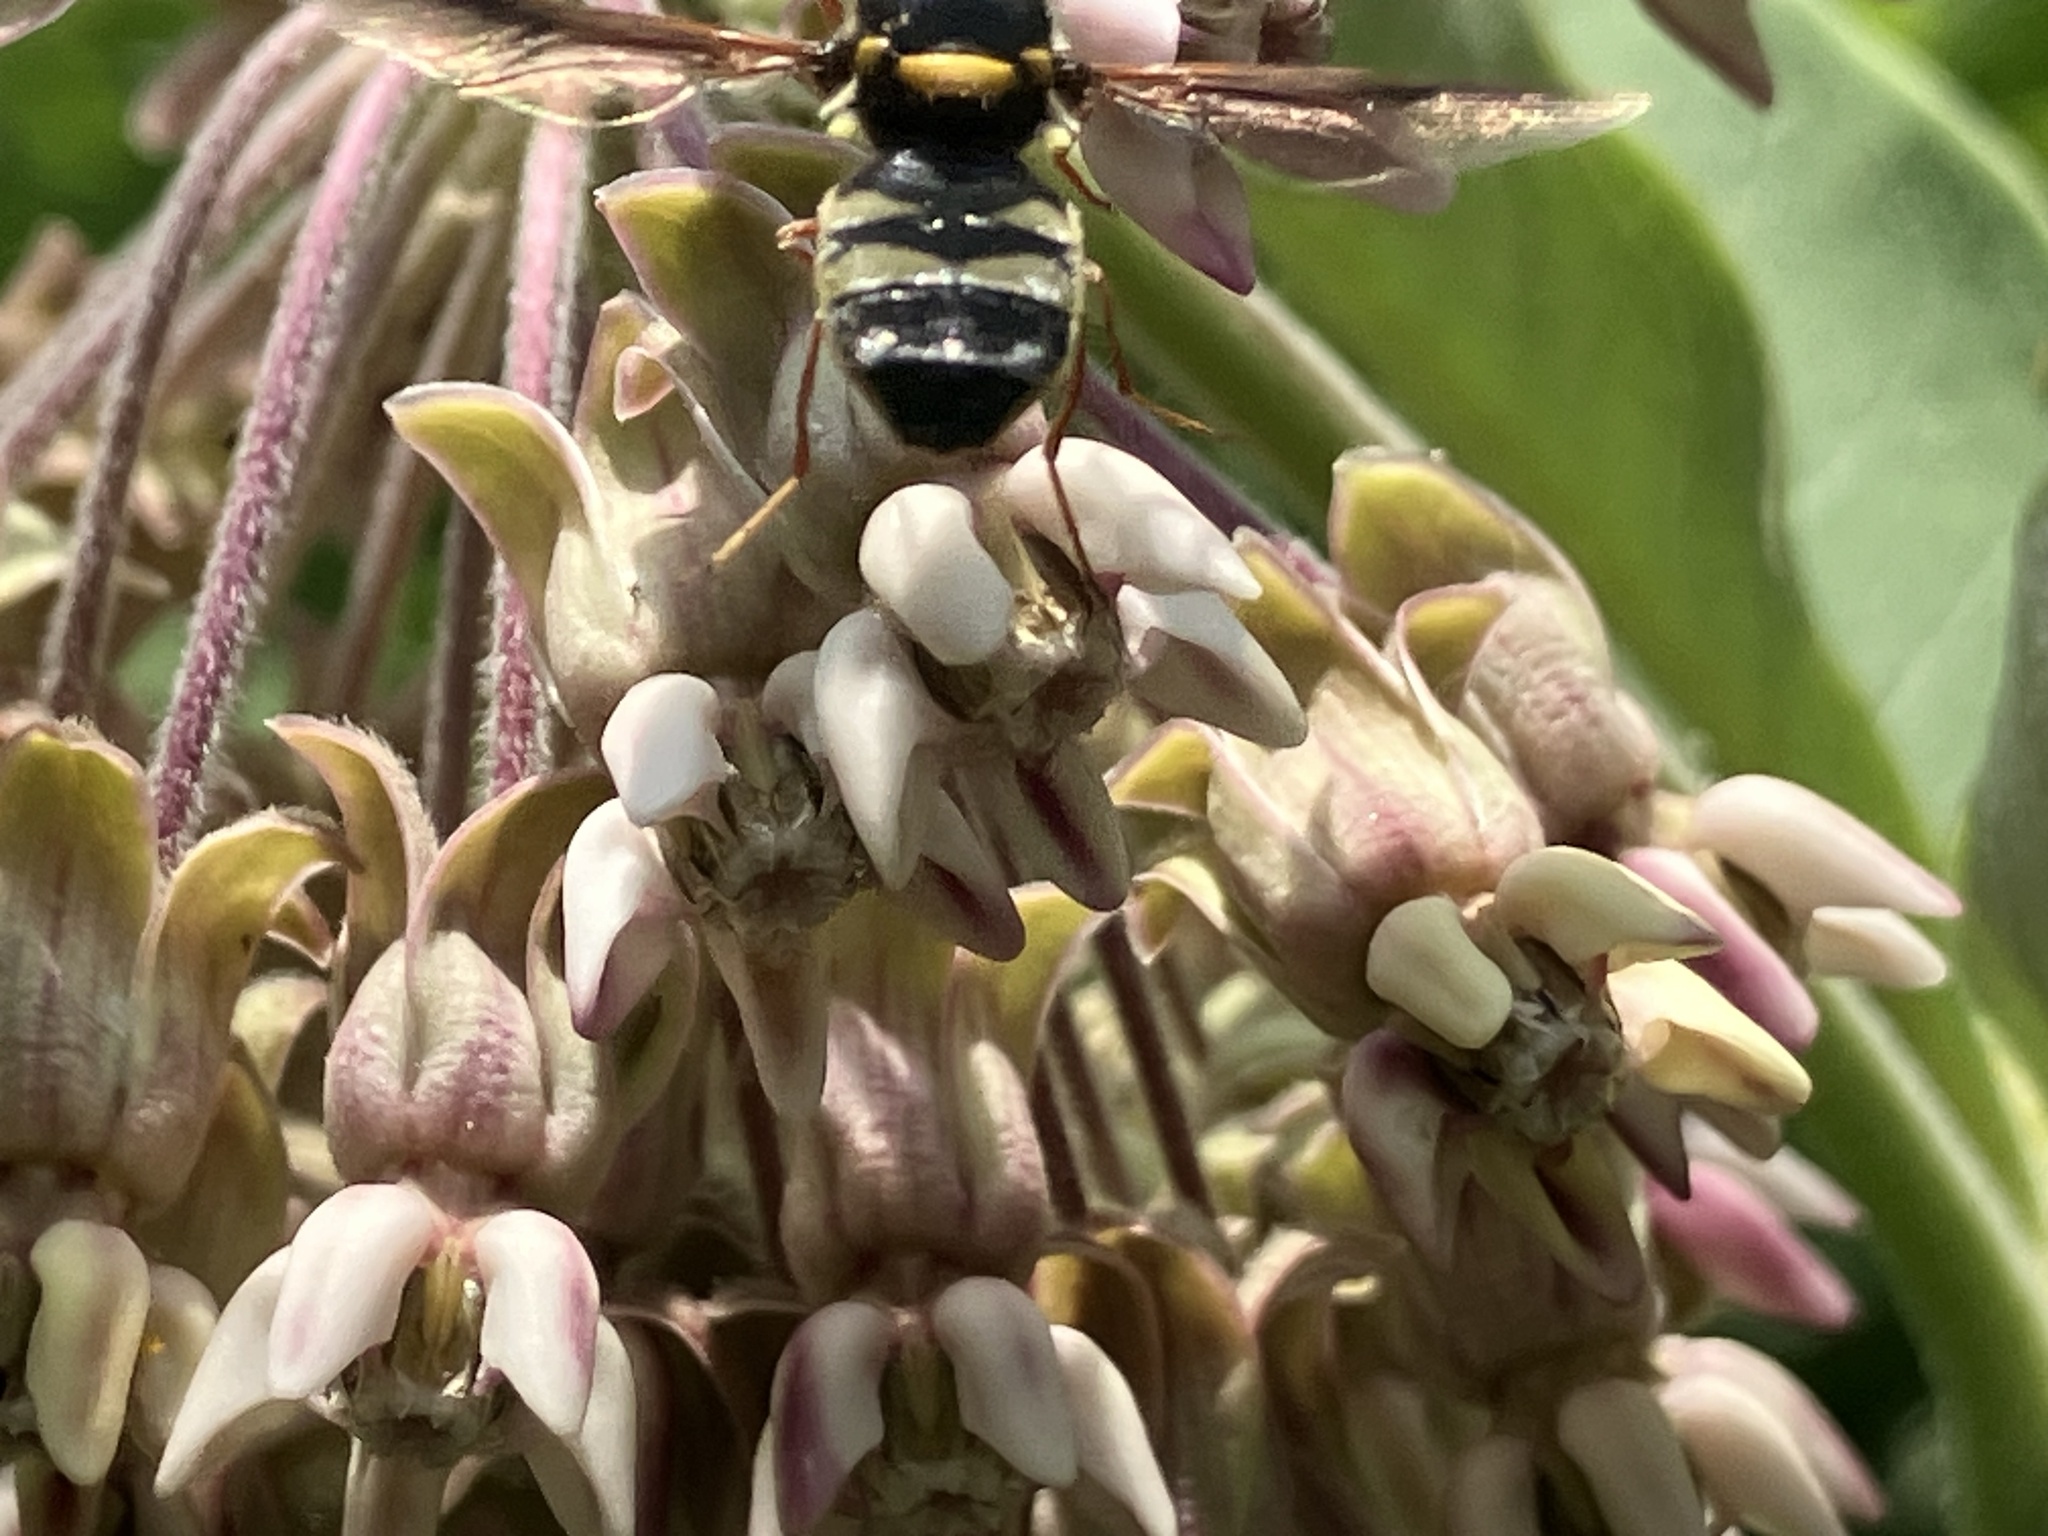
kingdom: Animalia
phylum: Arthropoda
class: Insecta
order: Diptera
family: Stratiomyidae
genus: Hoplitimyia
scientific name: Hoplitimyia constans
